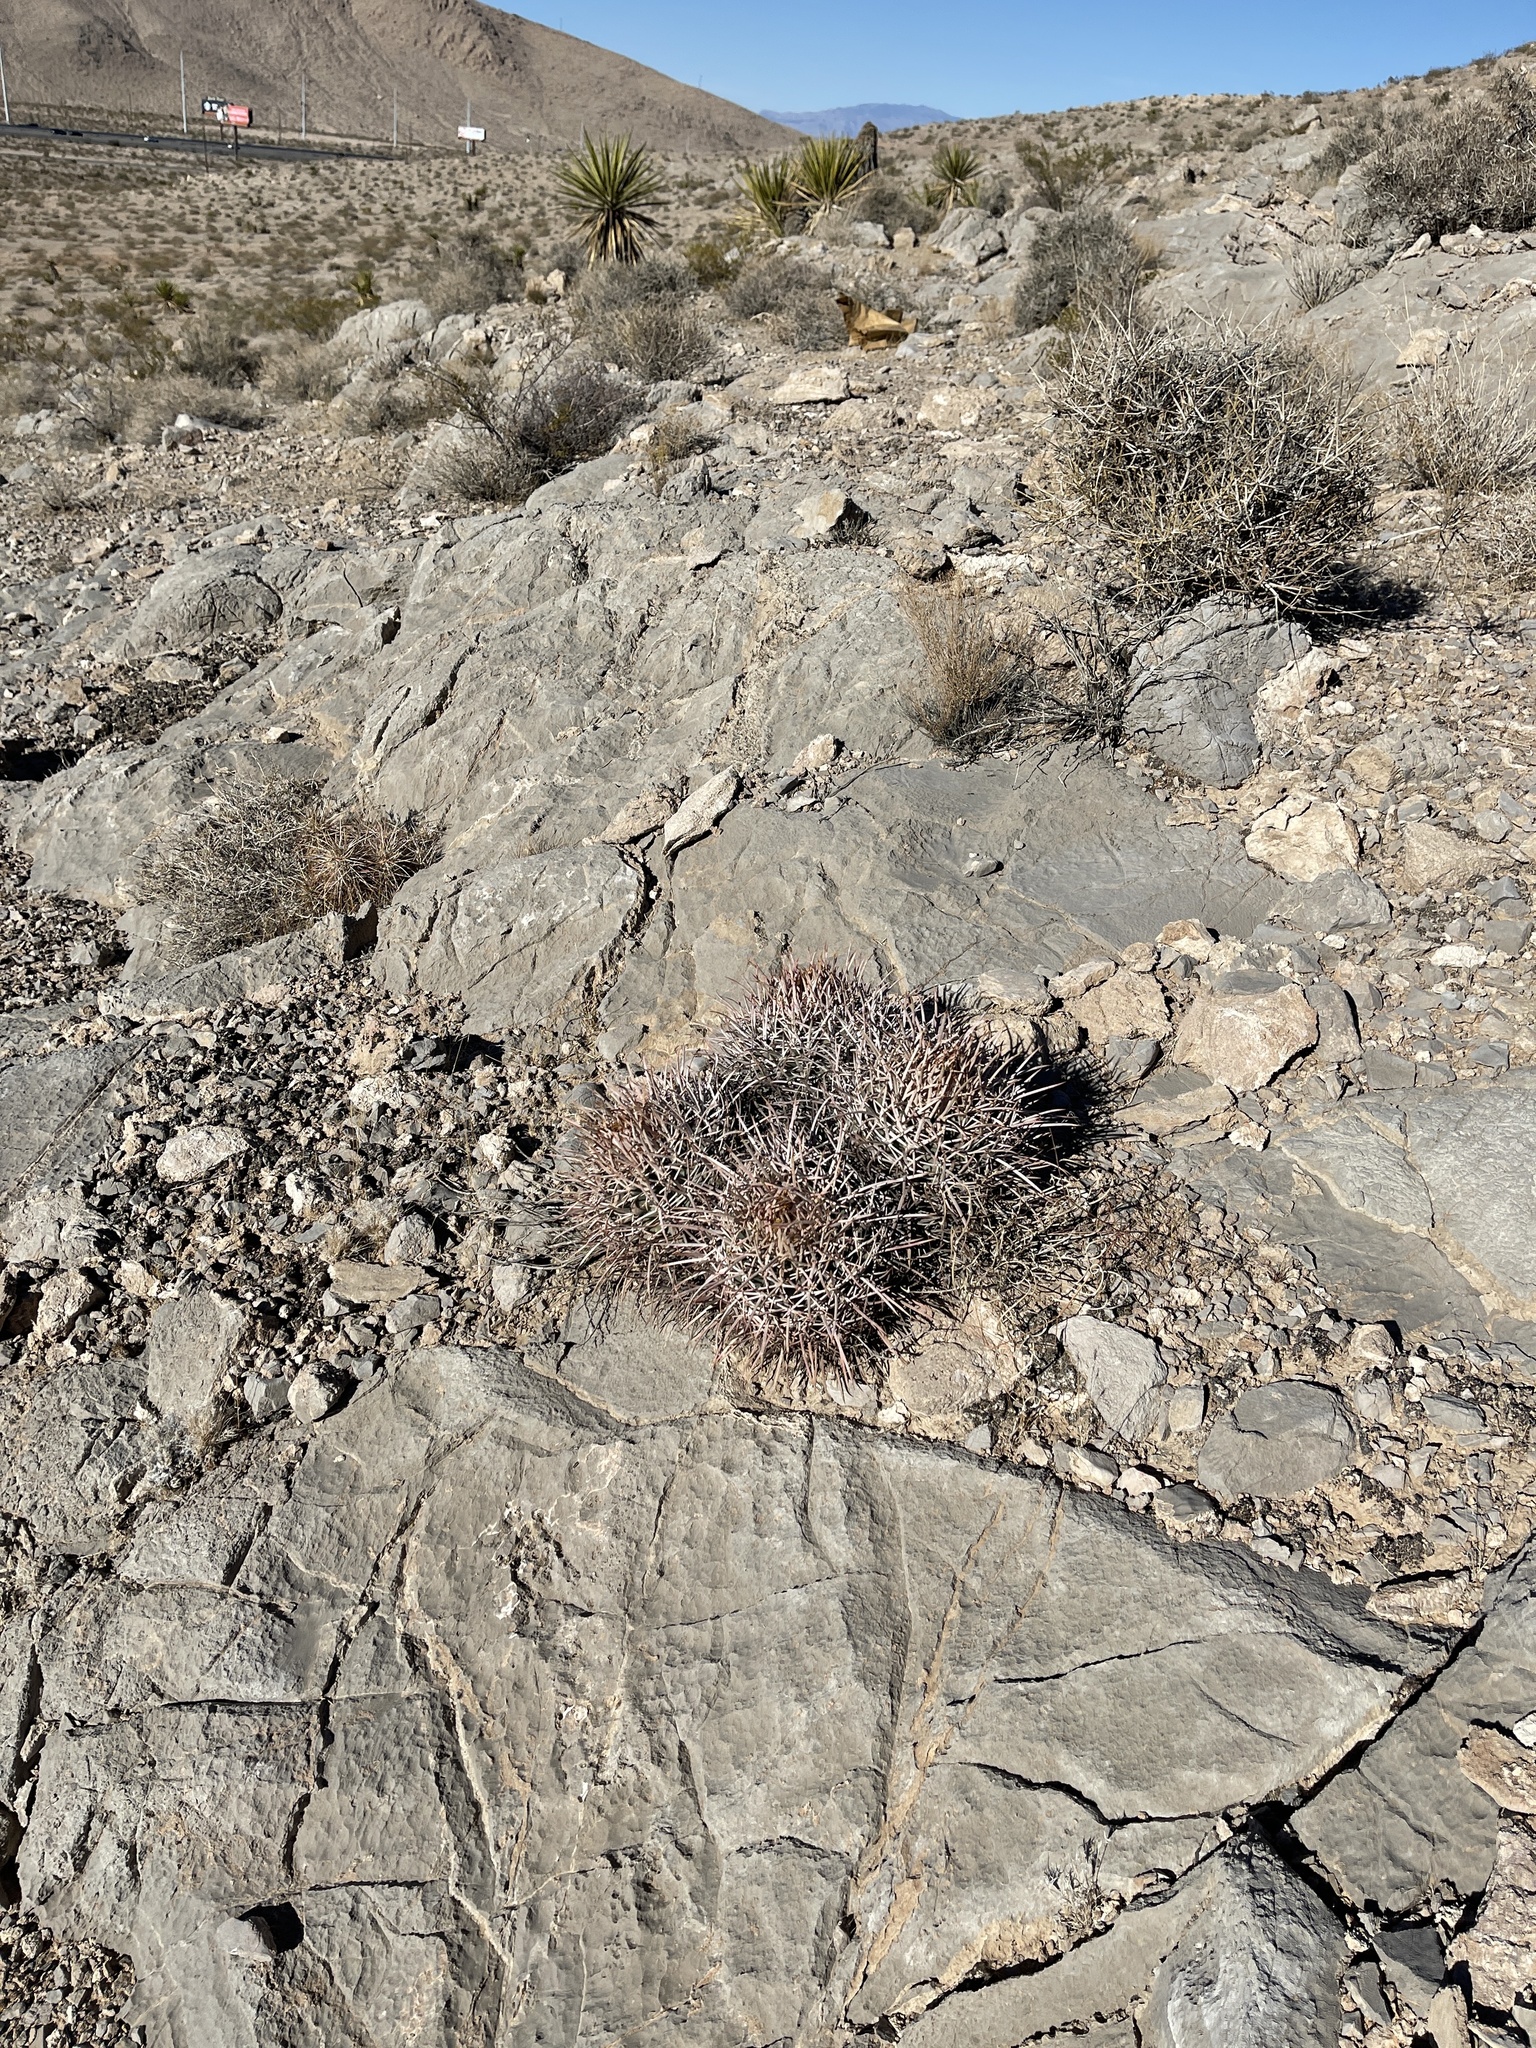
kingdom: Plantae
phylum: Tracheophyta
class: Magnoliopsida
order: Caryophyllales
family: Cactaceae
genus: Echinocactus
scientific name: Echinocactus polycephalus
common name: Cottontop cactus
